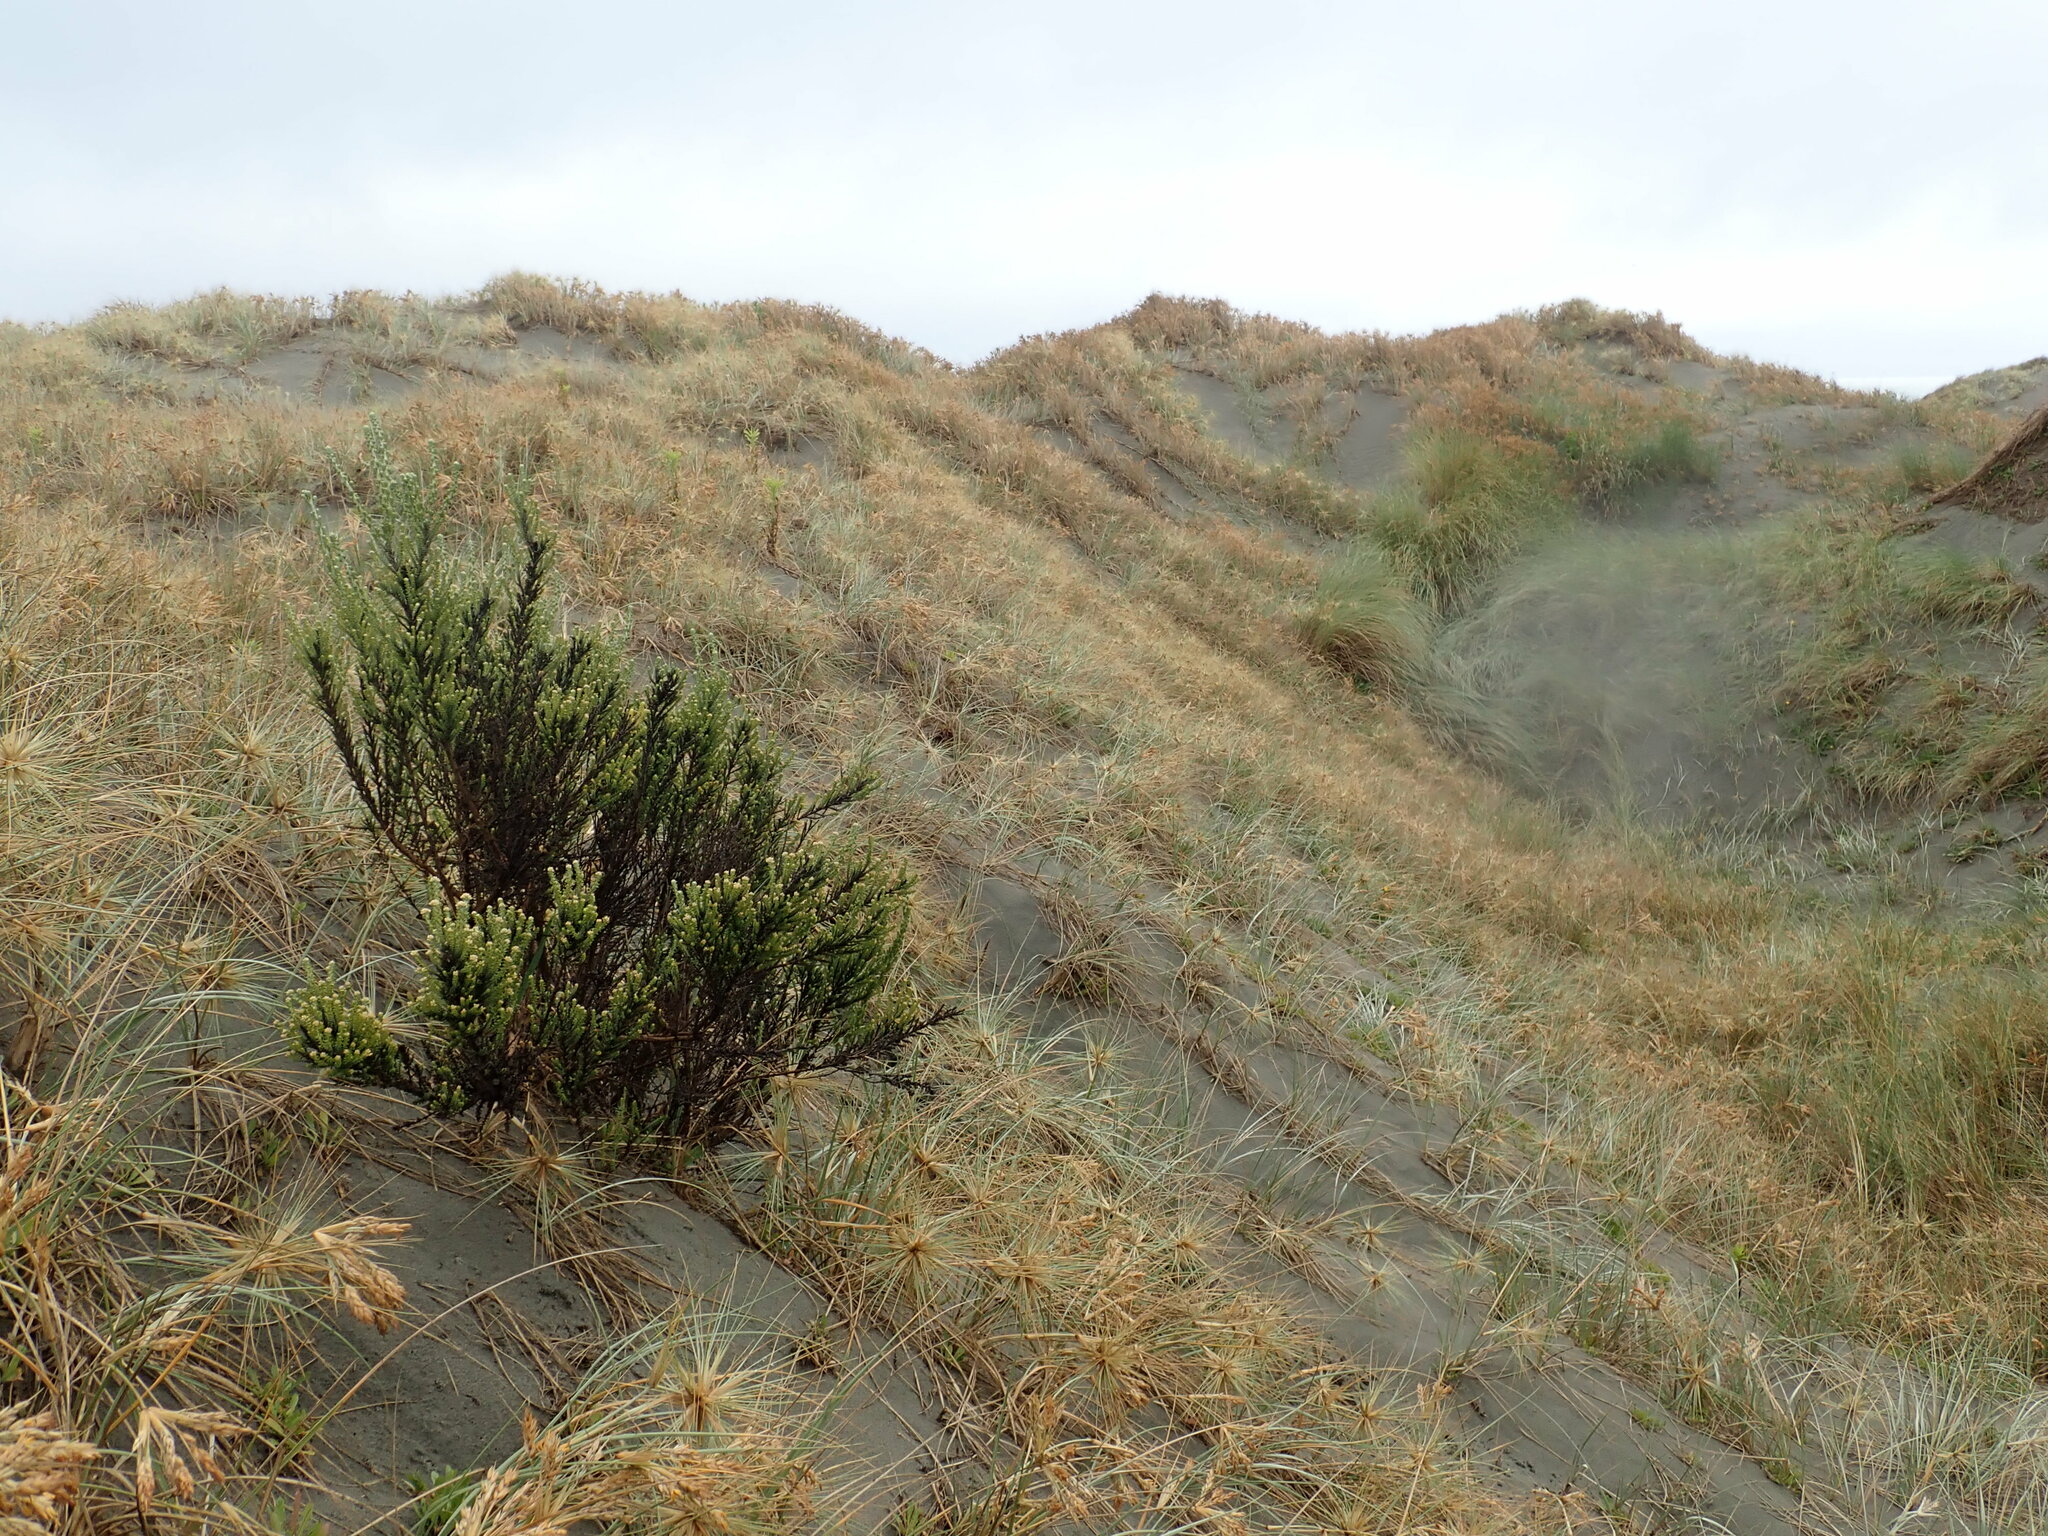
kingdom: Plantae
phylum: Tracheophyta
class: Magnoliopsida
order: Asterales
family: Asteraceae
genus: Ozothamnus
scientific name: Ozothamnus leptophyllus
